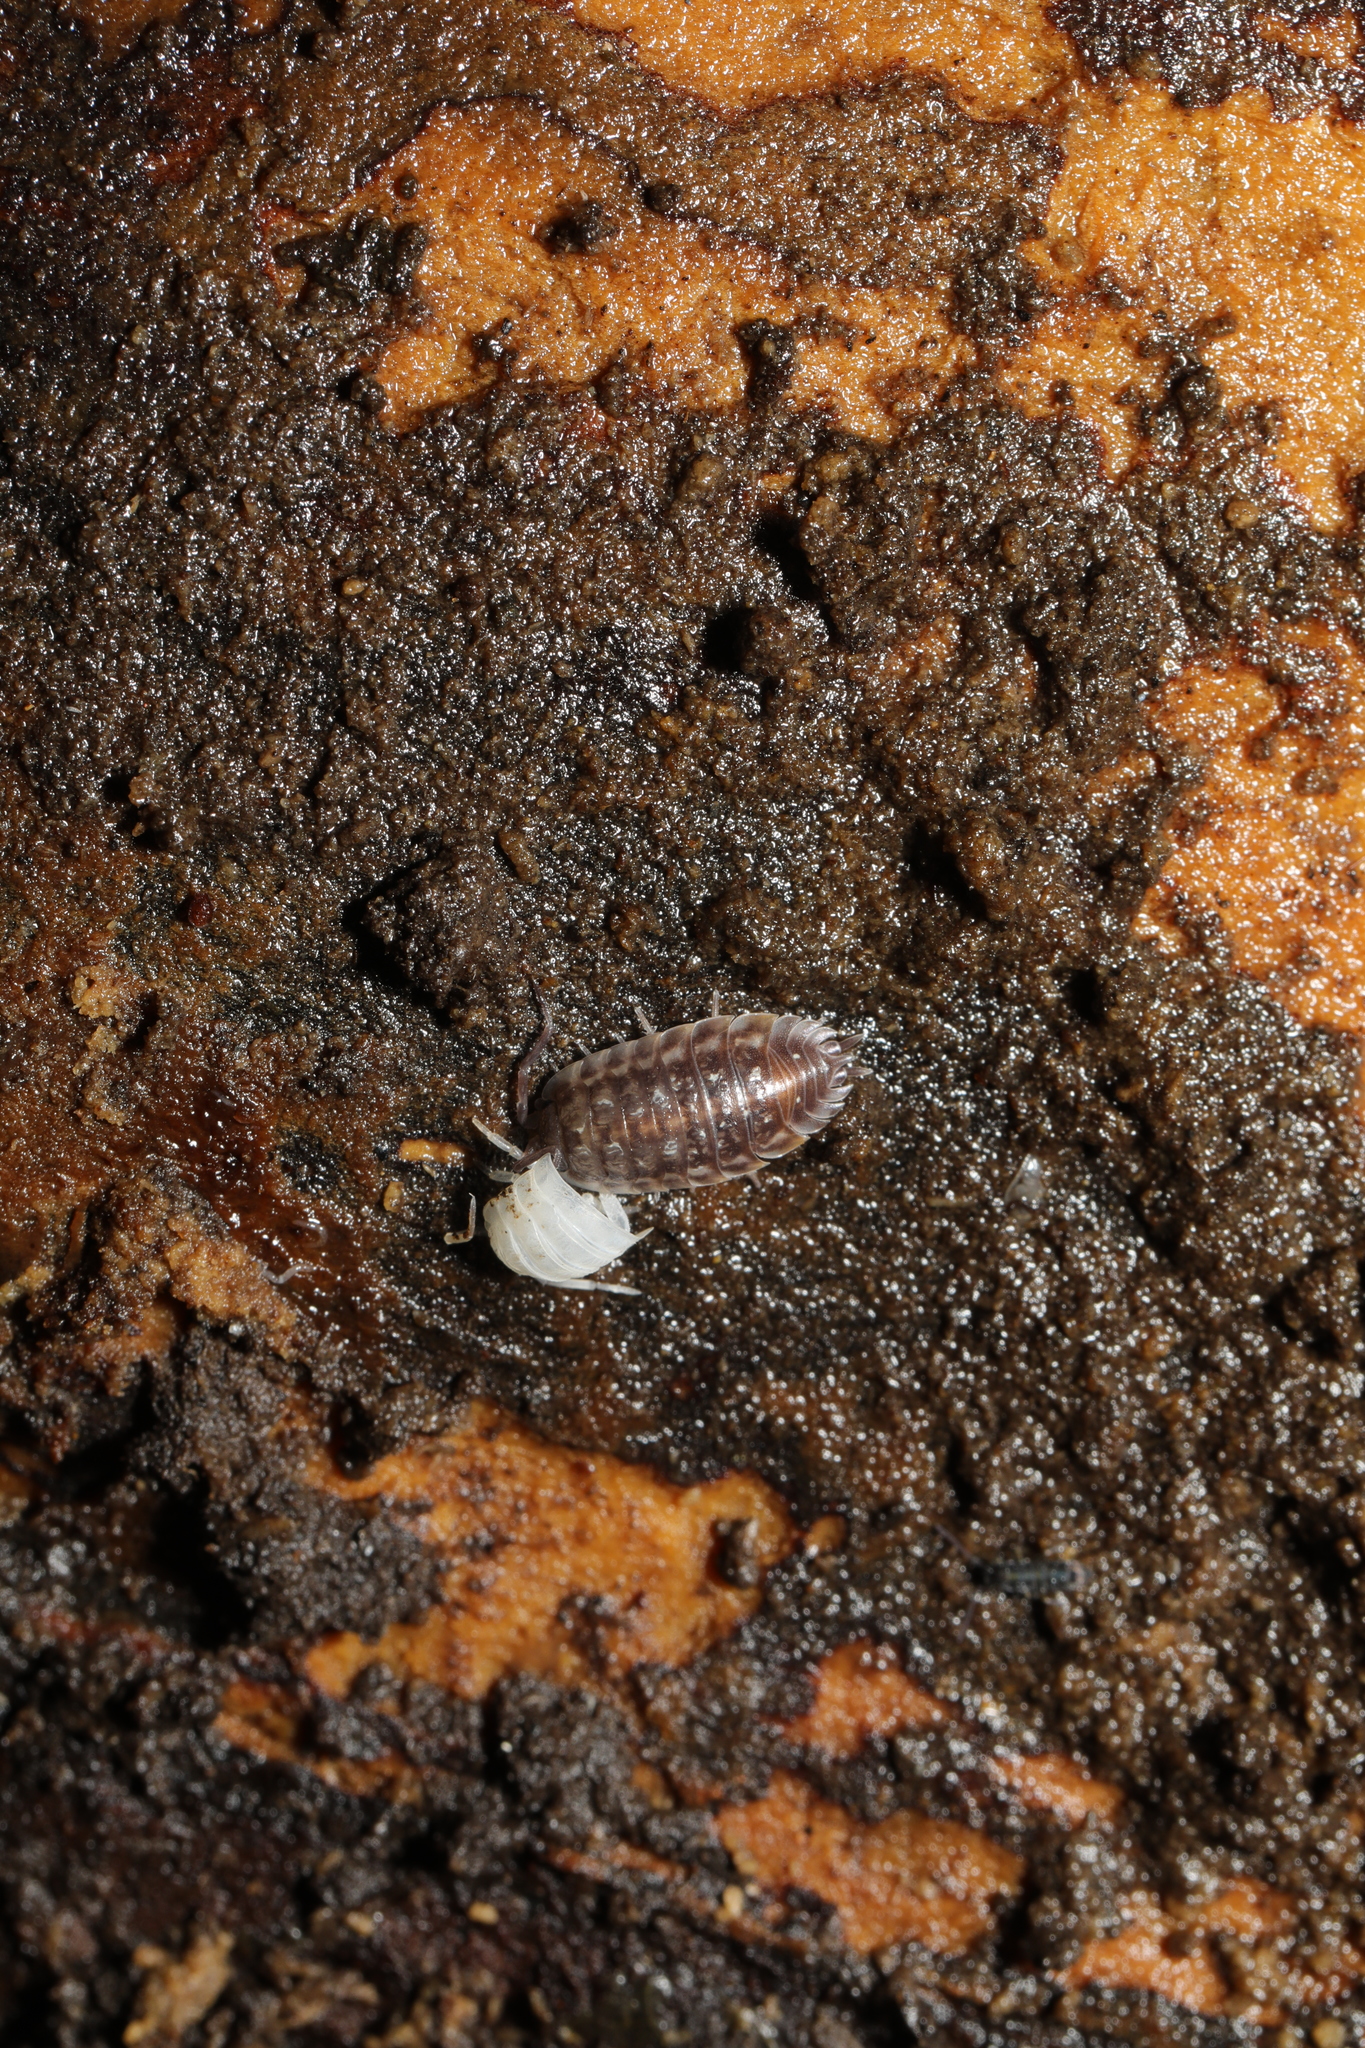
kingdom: Animalia
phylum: Arthropoda
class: Malacostraca
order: Isopoda
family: Oniscidae
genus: Oniscus
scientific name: Oniscus asellus
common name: Common shiny woodlouse
